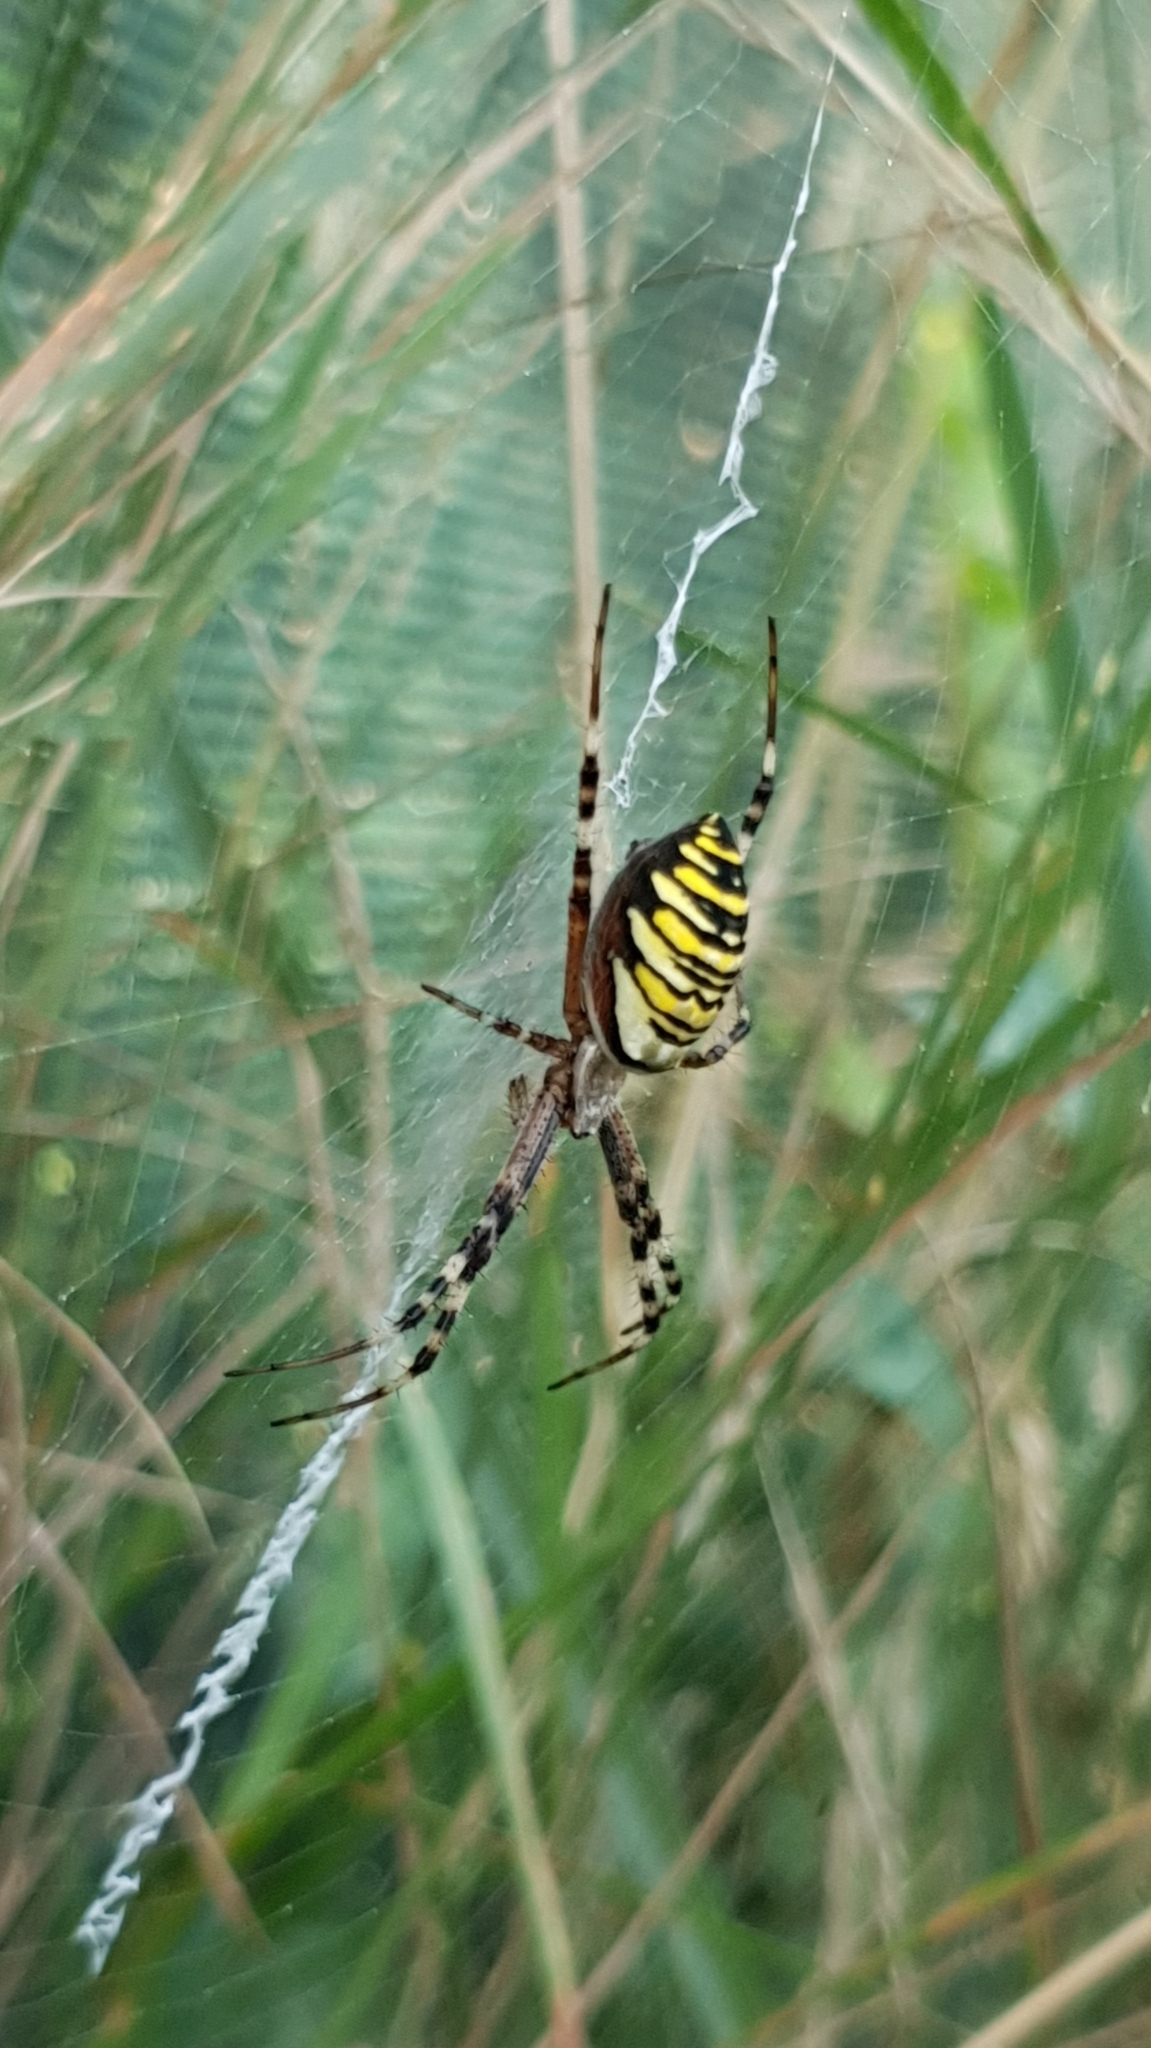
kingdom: Animalia
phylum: Arthropoda
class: Arachnida
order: Araneae
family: Araneidae
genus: Argiope
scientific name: Argiope bruennichi
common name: Wasp spider
